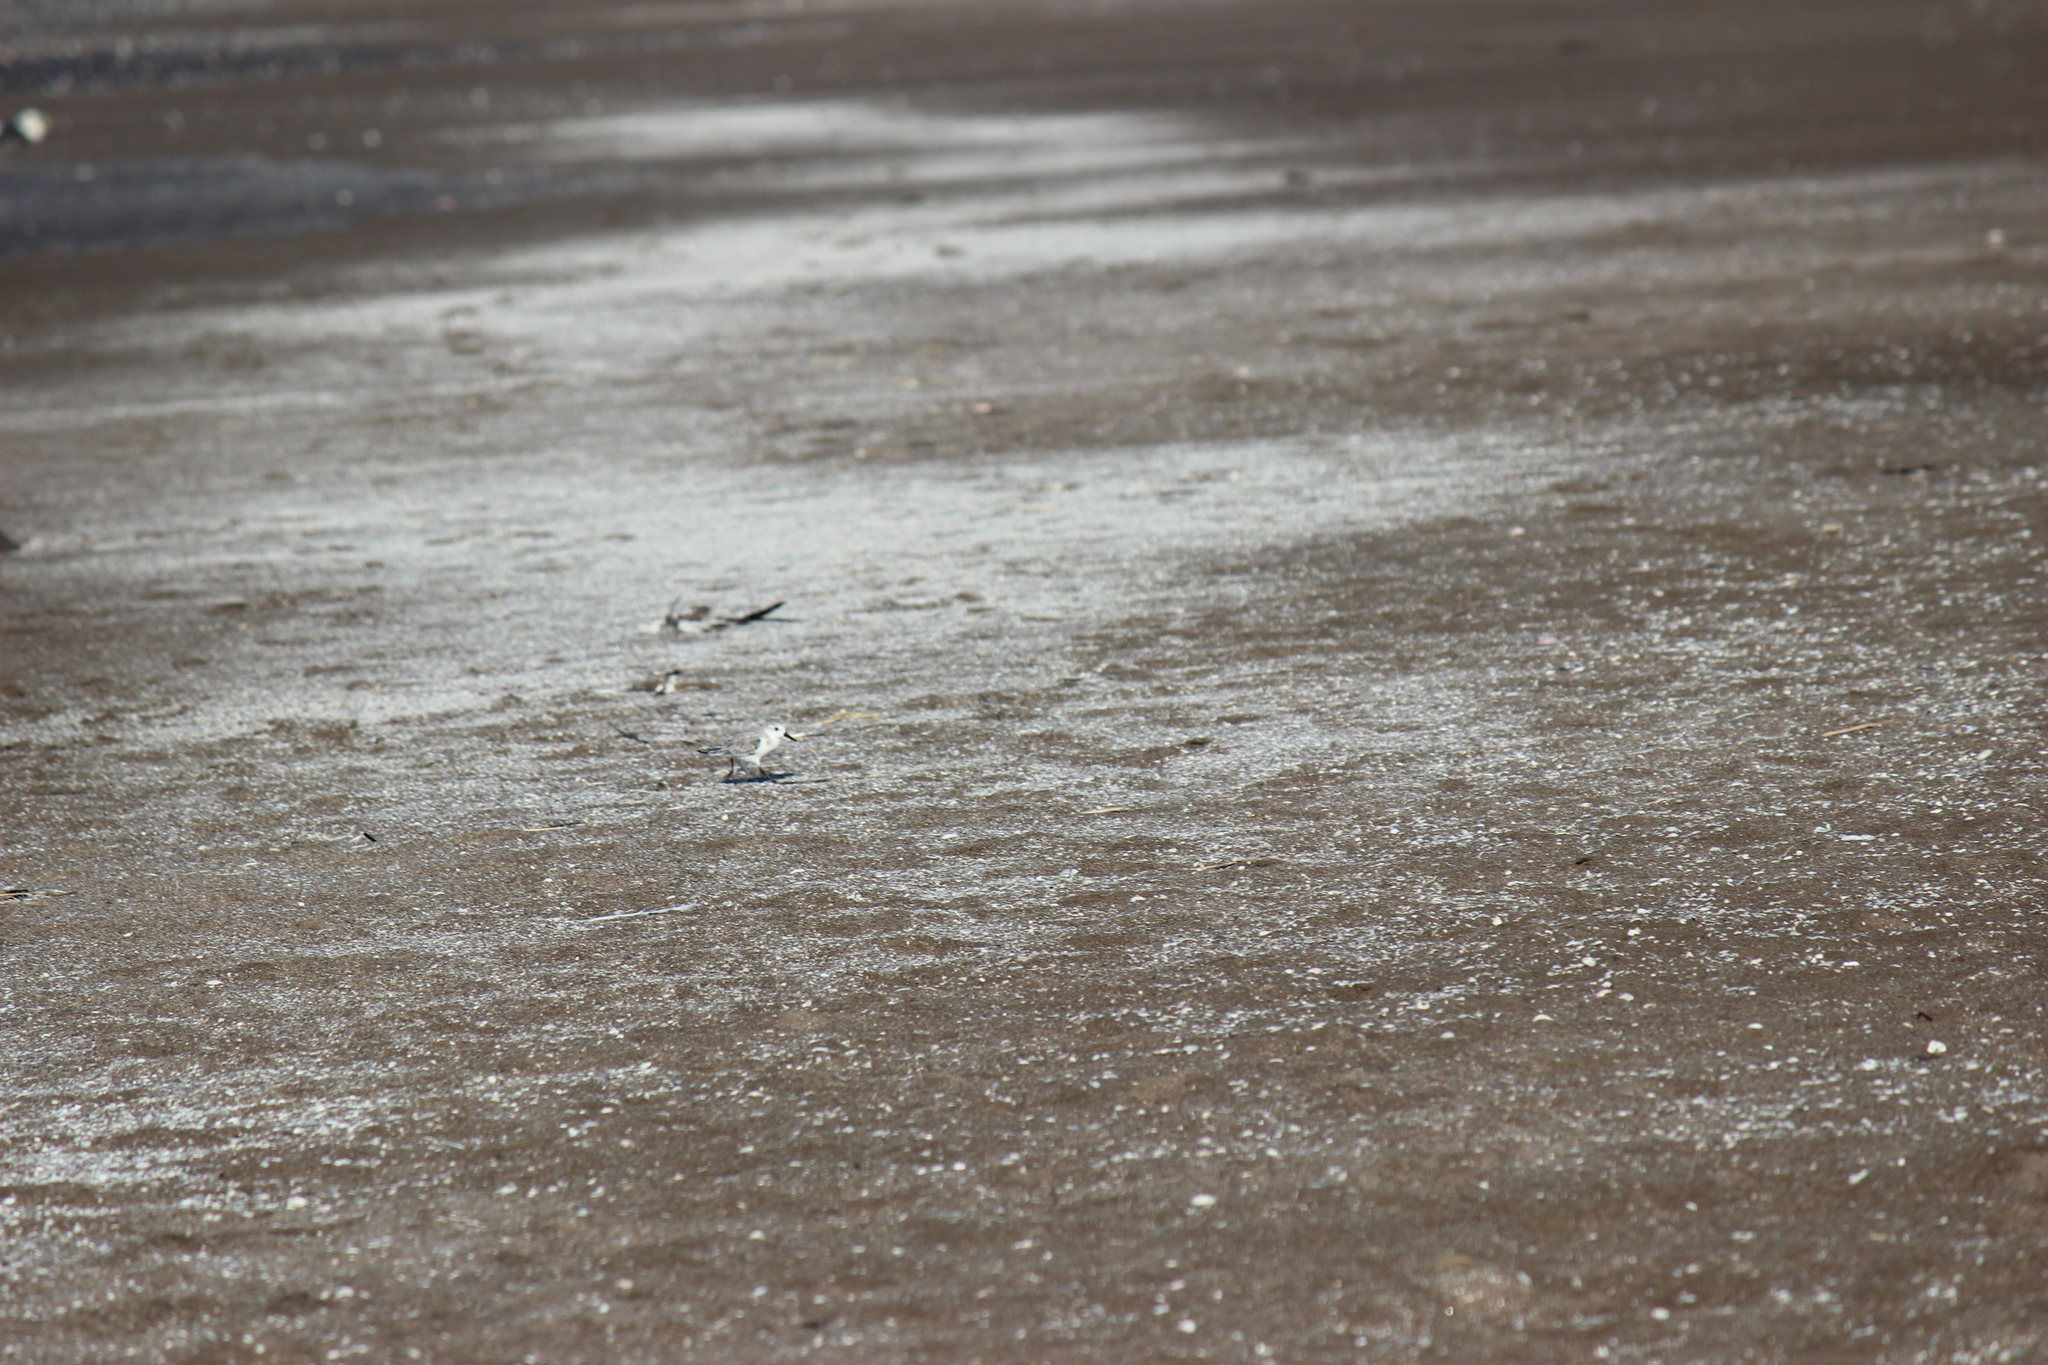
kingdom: Animalia
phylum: Chordata
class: Aves
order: Charadriiformes
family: Scolopacidae
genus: Calidris
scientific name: Calidris alba
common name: Sanderling
